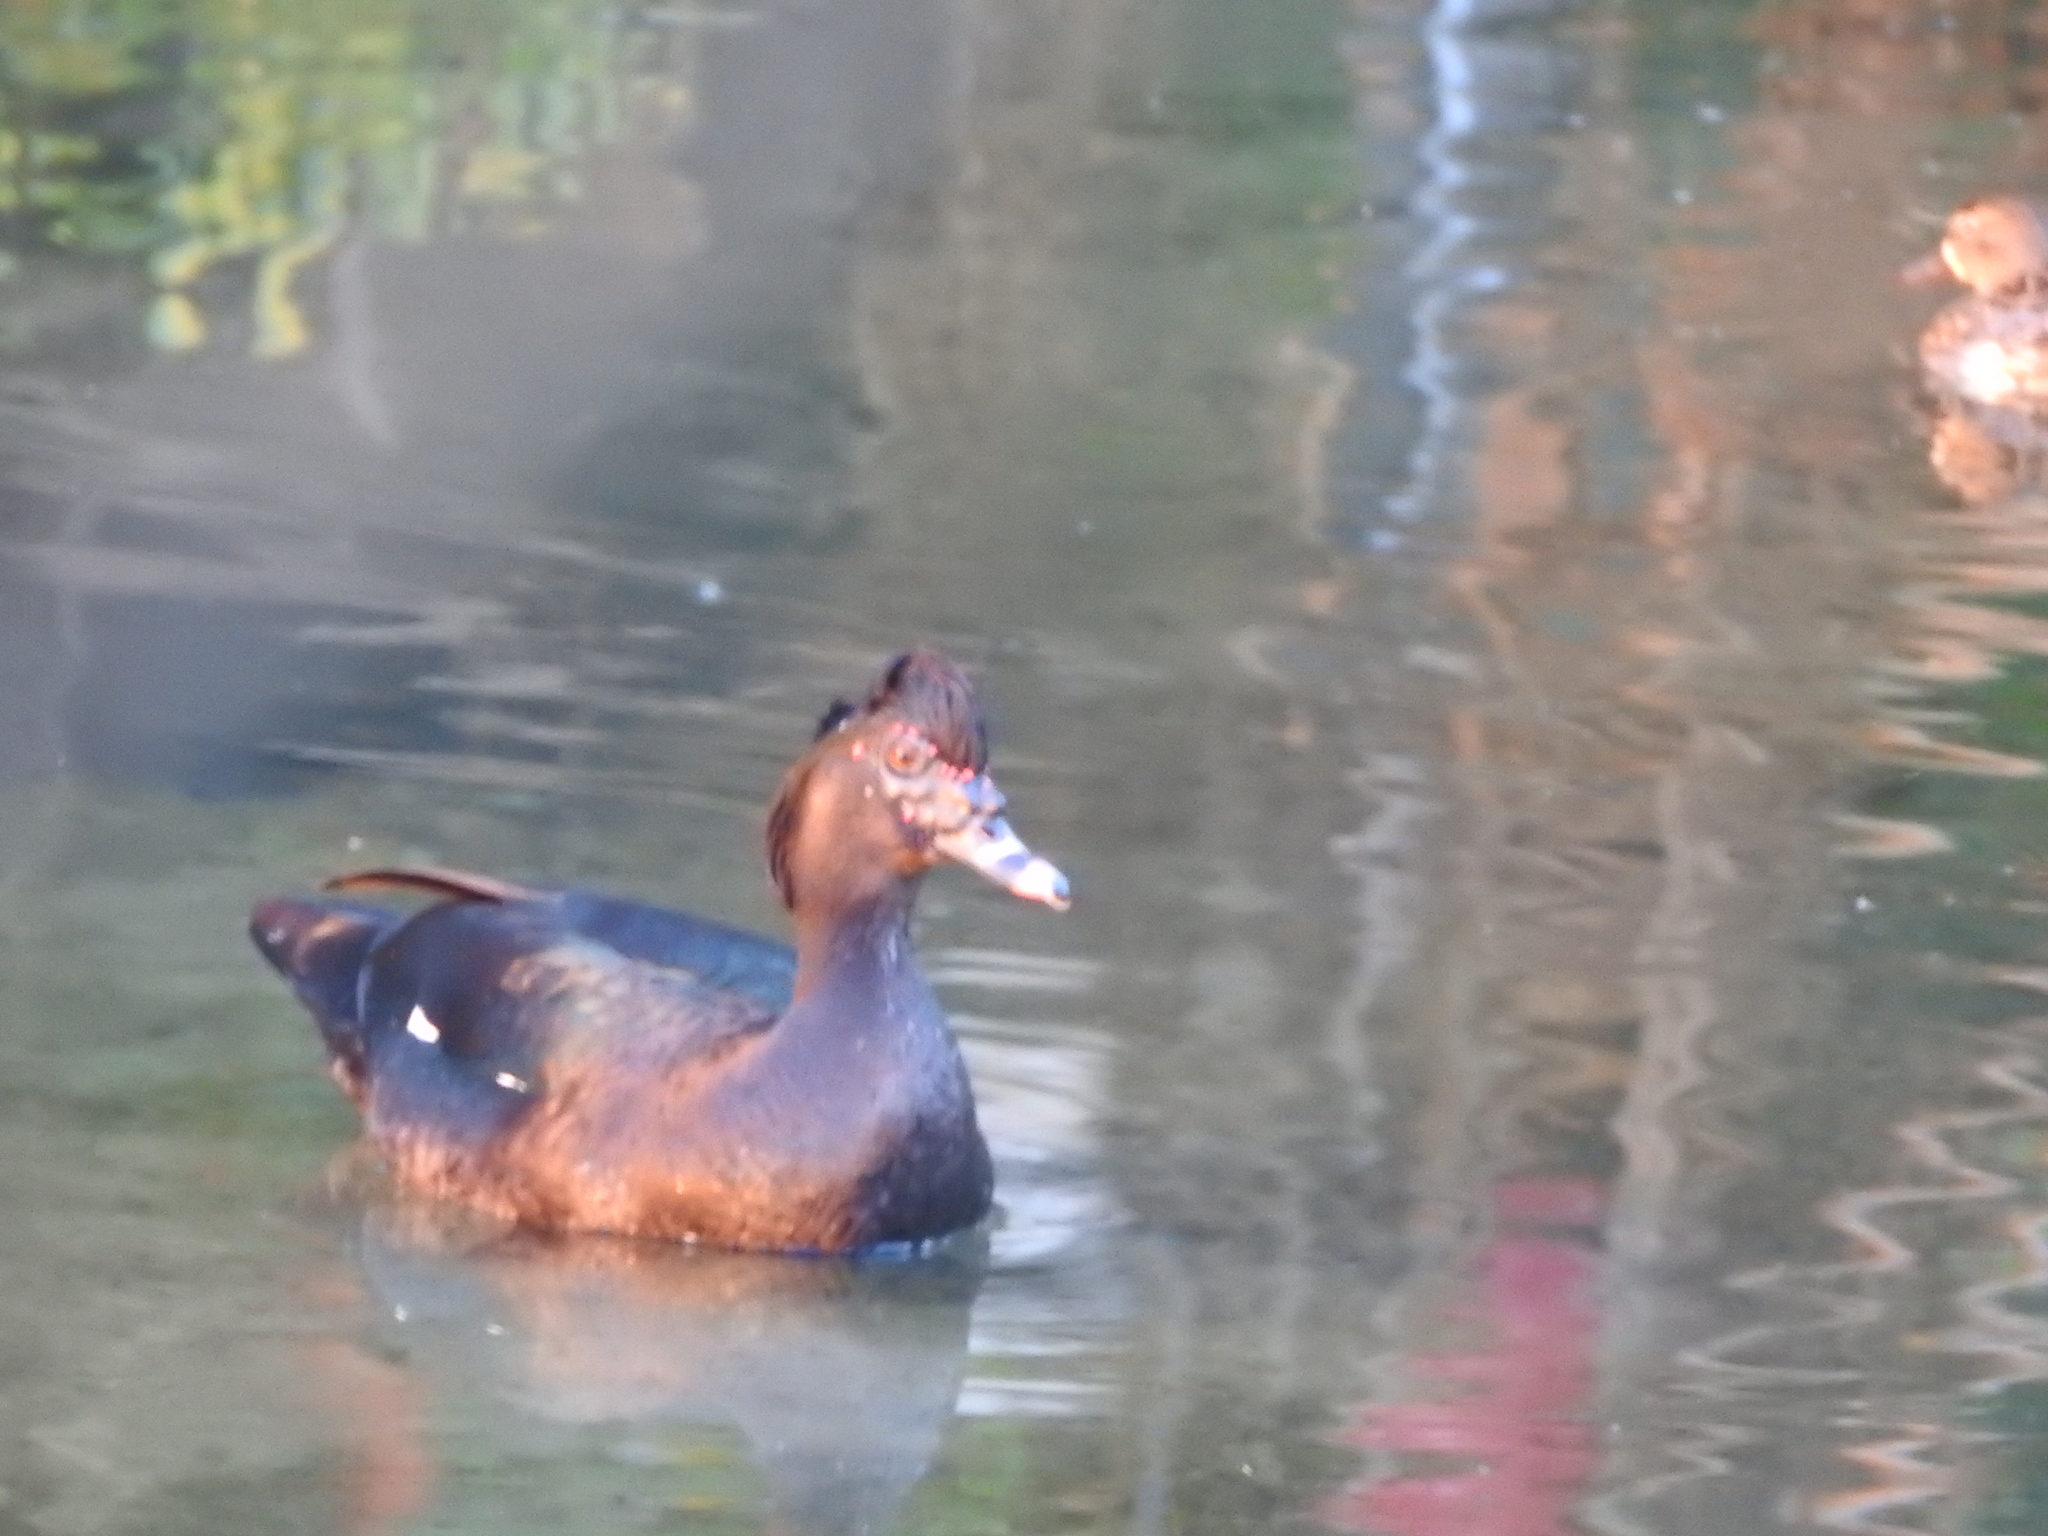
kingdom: Animalia
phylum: Chordata
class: Aves
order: Anseriformes
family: Anatidae
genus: Cairina
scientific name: Cairina moschata
